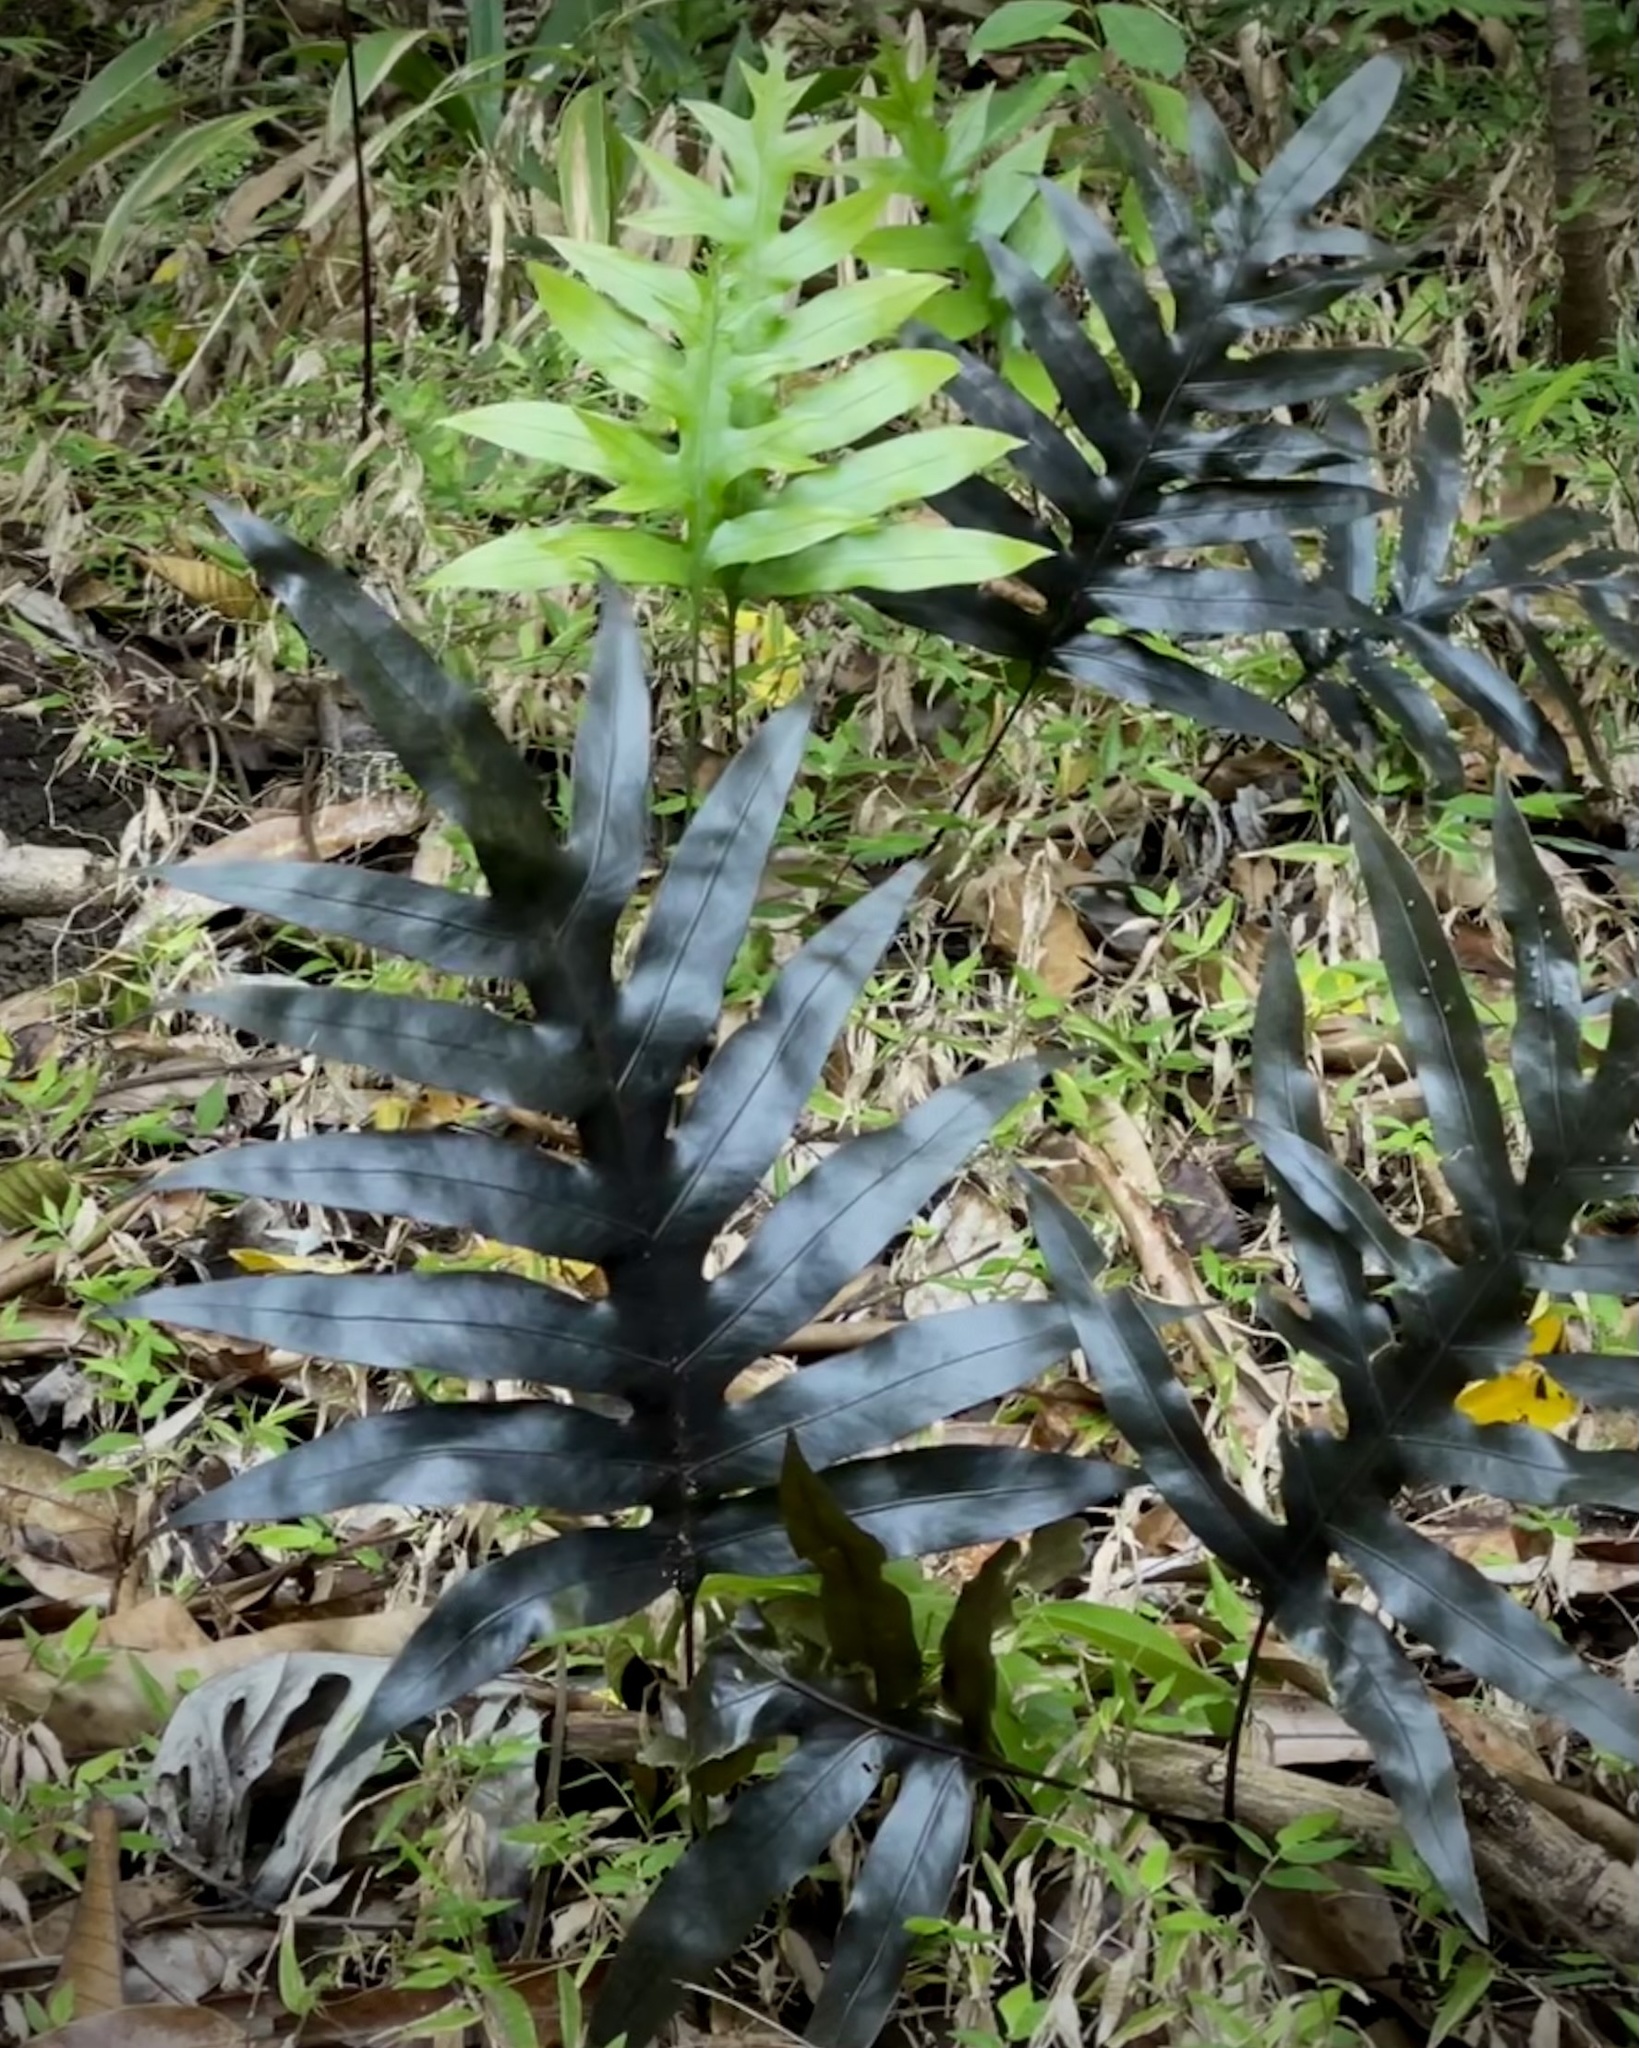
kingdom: Plantae
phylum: Tracheophyta
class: Polypodiopsida
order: Polypodiales
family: Polypodiaceae
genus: Microsorum
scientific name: Microsorum grossum
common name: Musk fern
